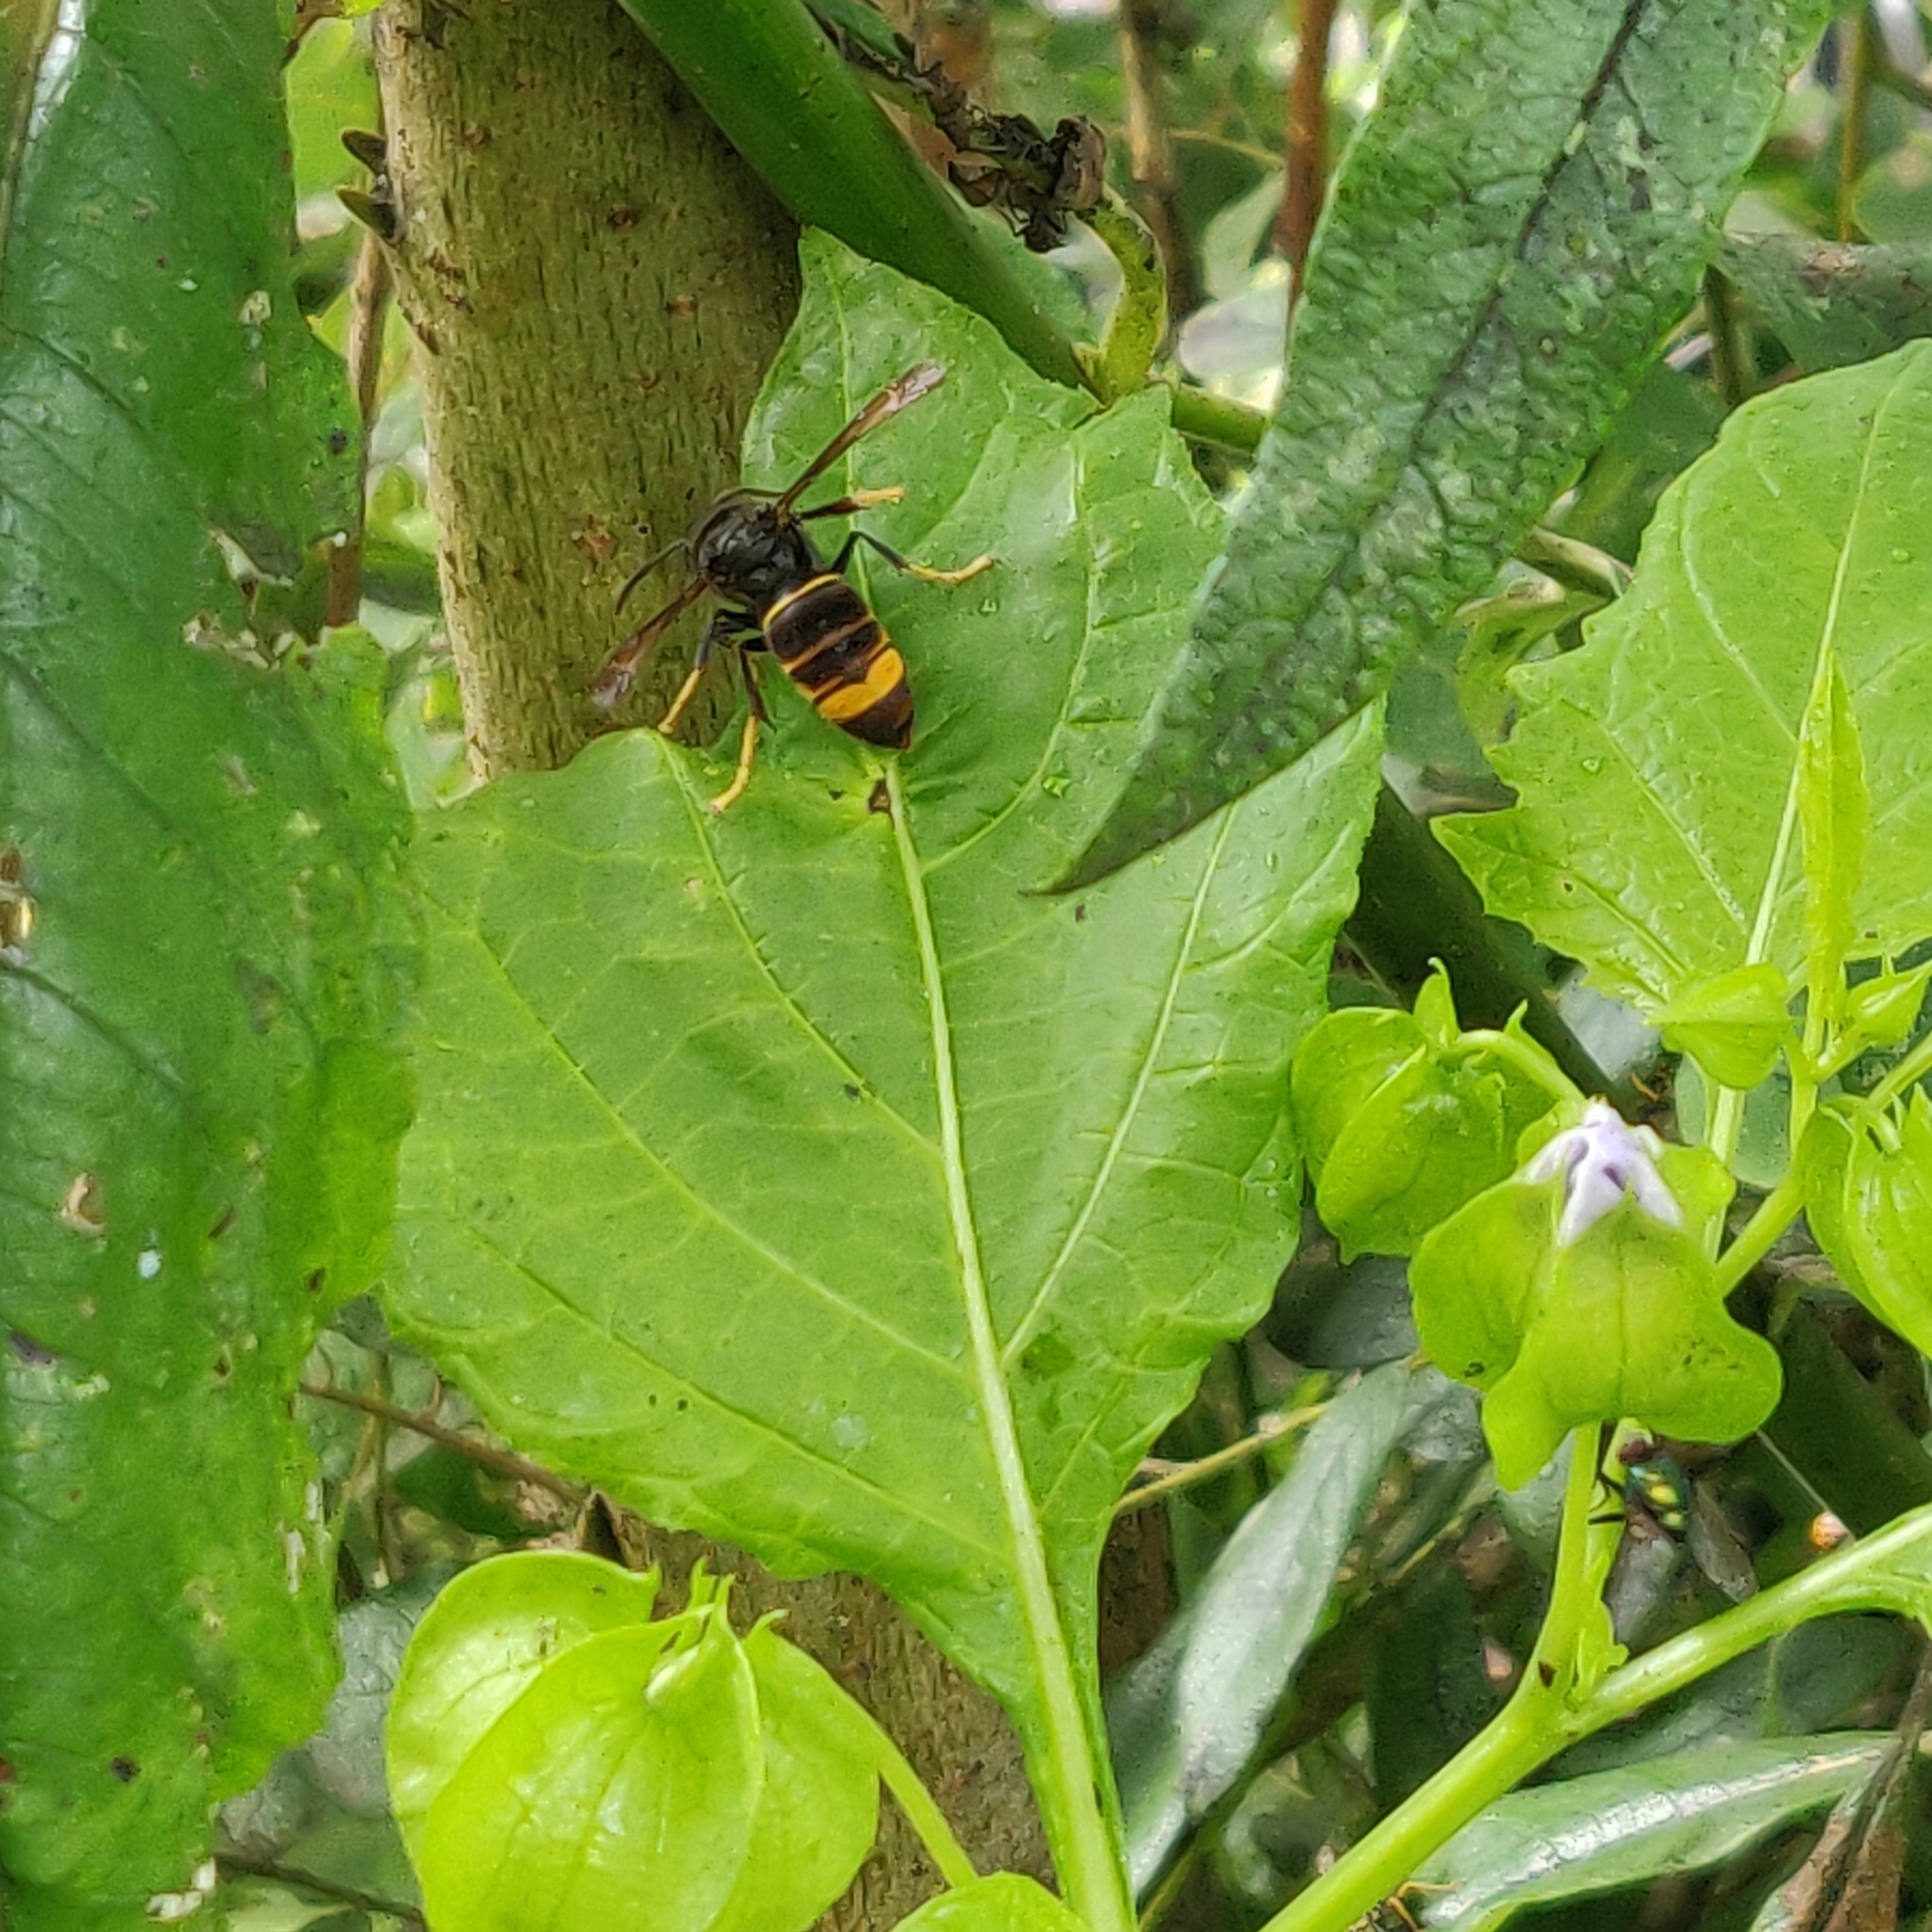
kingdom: Animalia
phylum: Arthropoda
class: Insecta
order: Hymenoptera
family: Vespidae
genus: Vespa
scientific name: Vespa velutina
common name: Asian hornet
